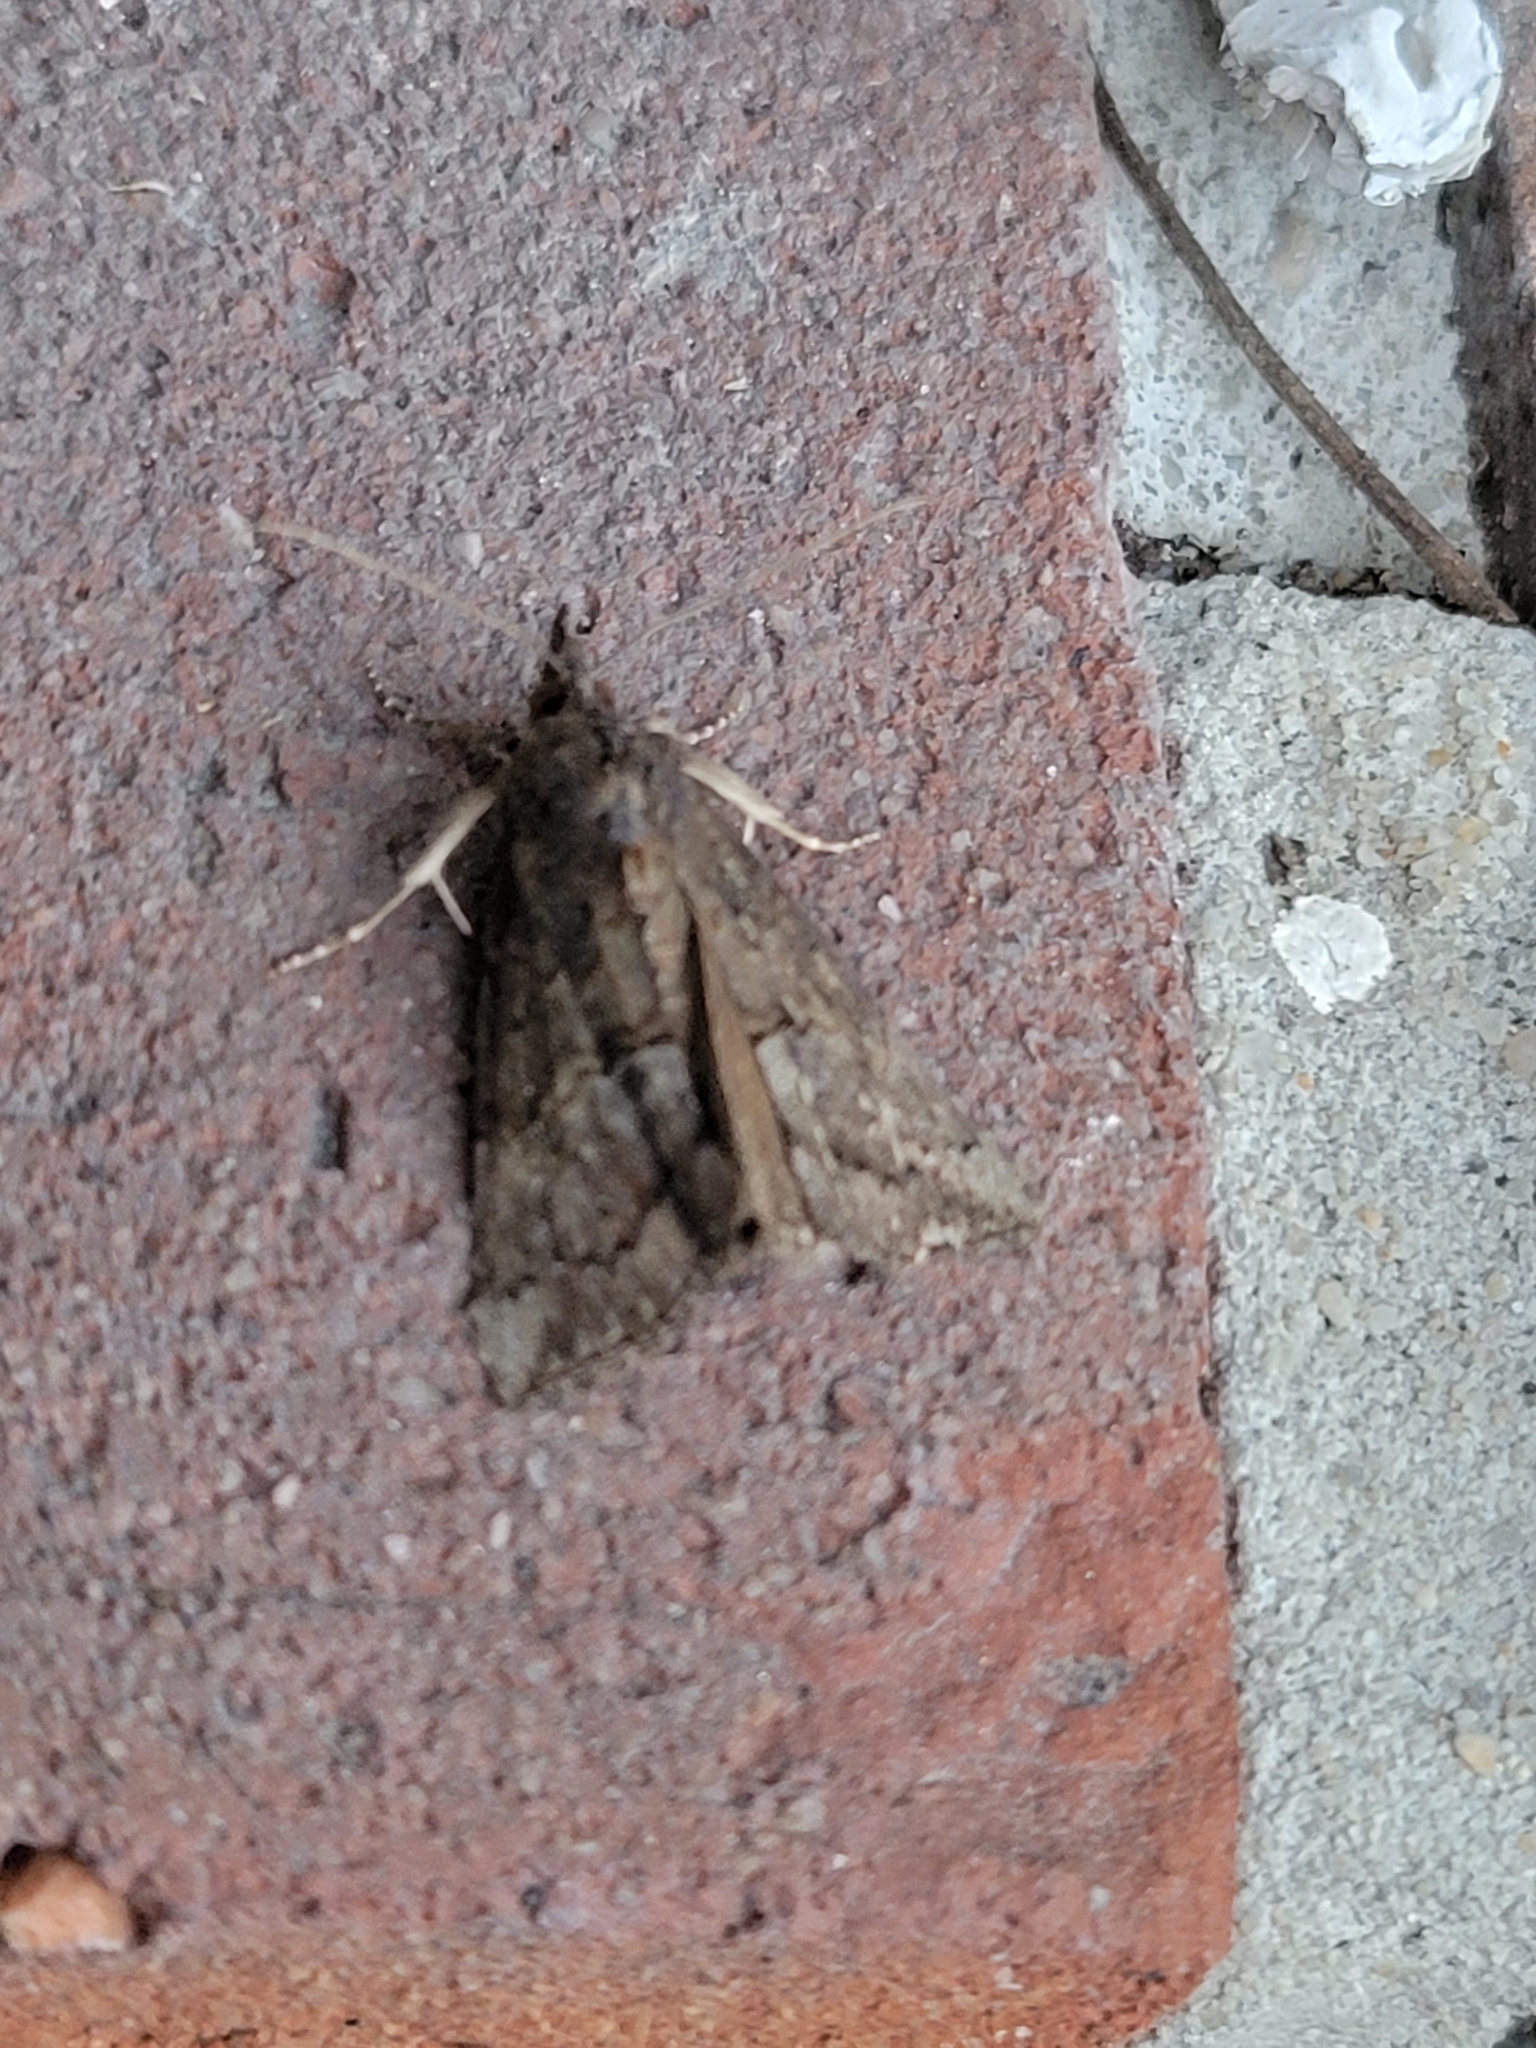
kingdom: Animalia
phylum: Arthropoda
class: Insecta
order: Lepidoptera
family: Erebidae
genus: Hypena
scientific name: Hypena scabra
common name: Green cloverworm
